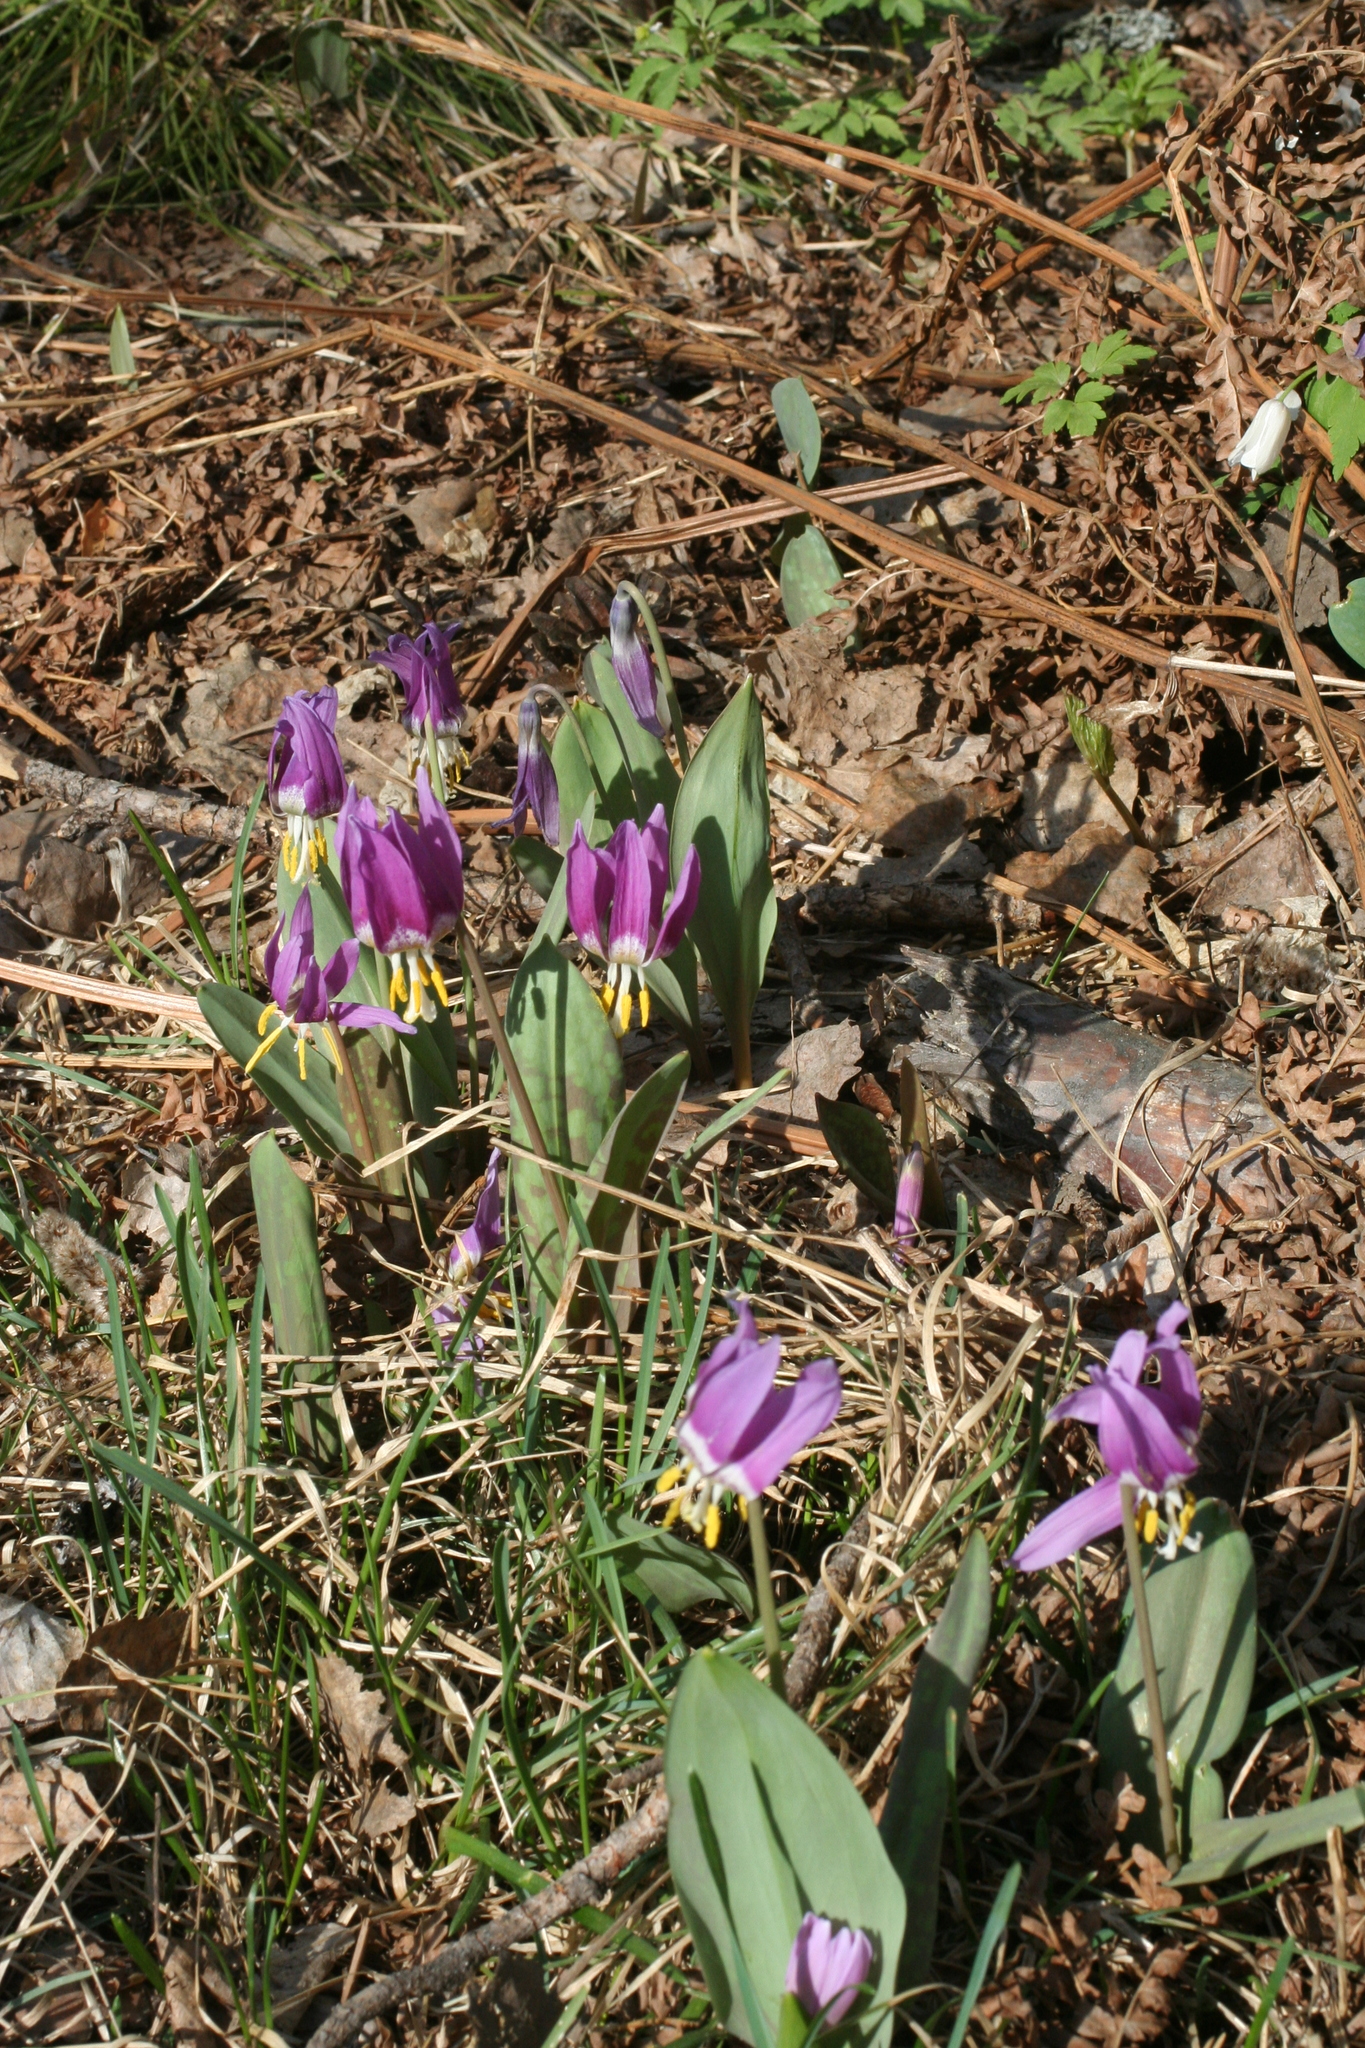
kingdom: Plantae
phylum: Tracheophyta
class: Liliopsida
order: Liliales
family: Liliaceae
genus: Erythronium
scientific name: Erythronium sibiricum
